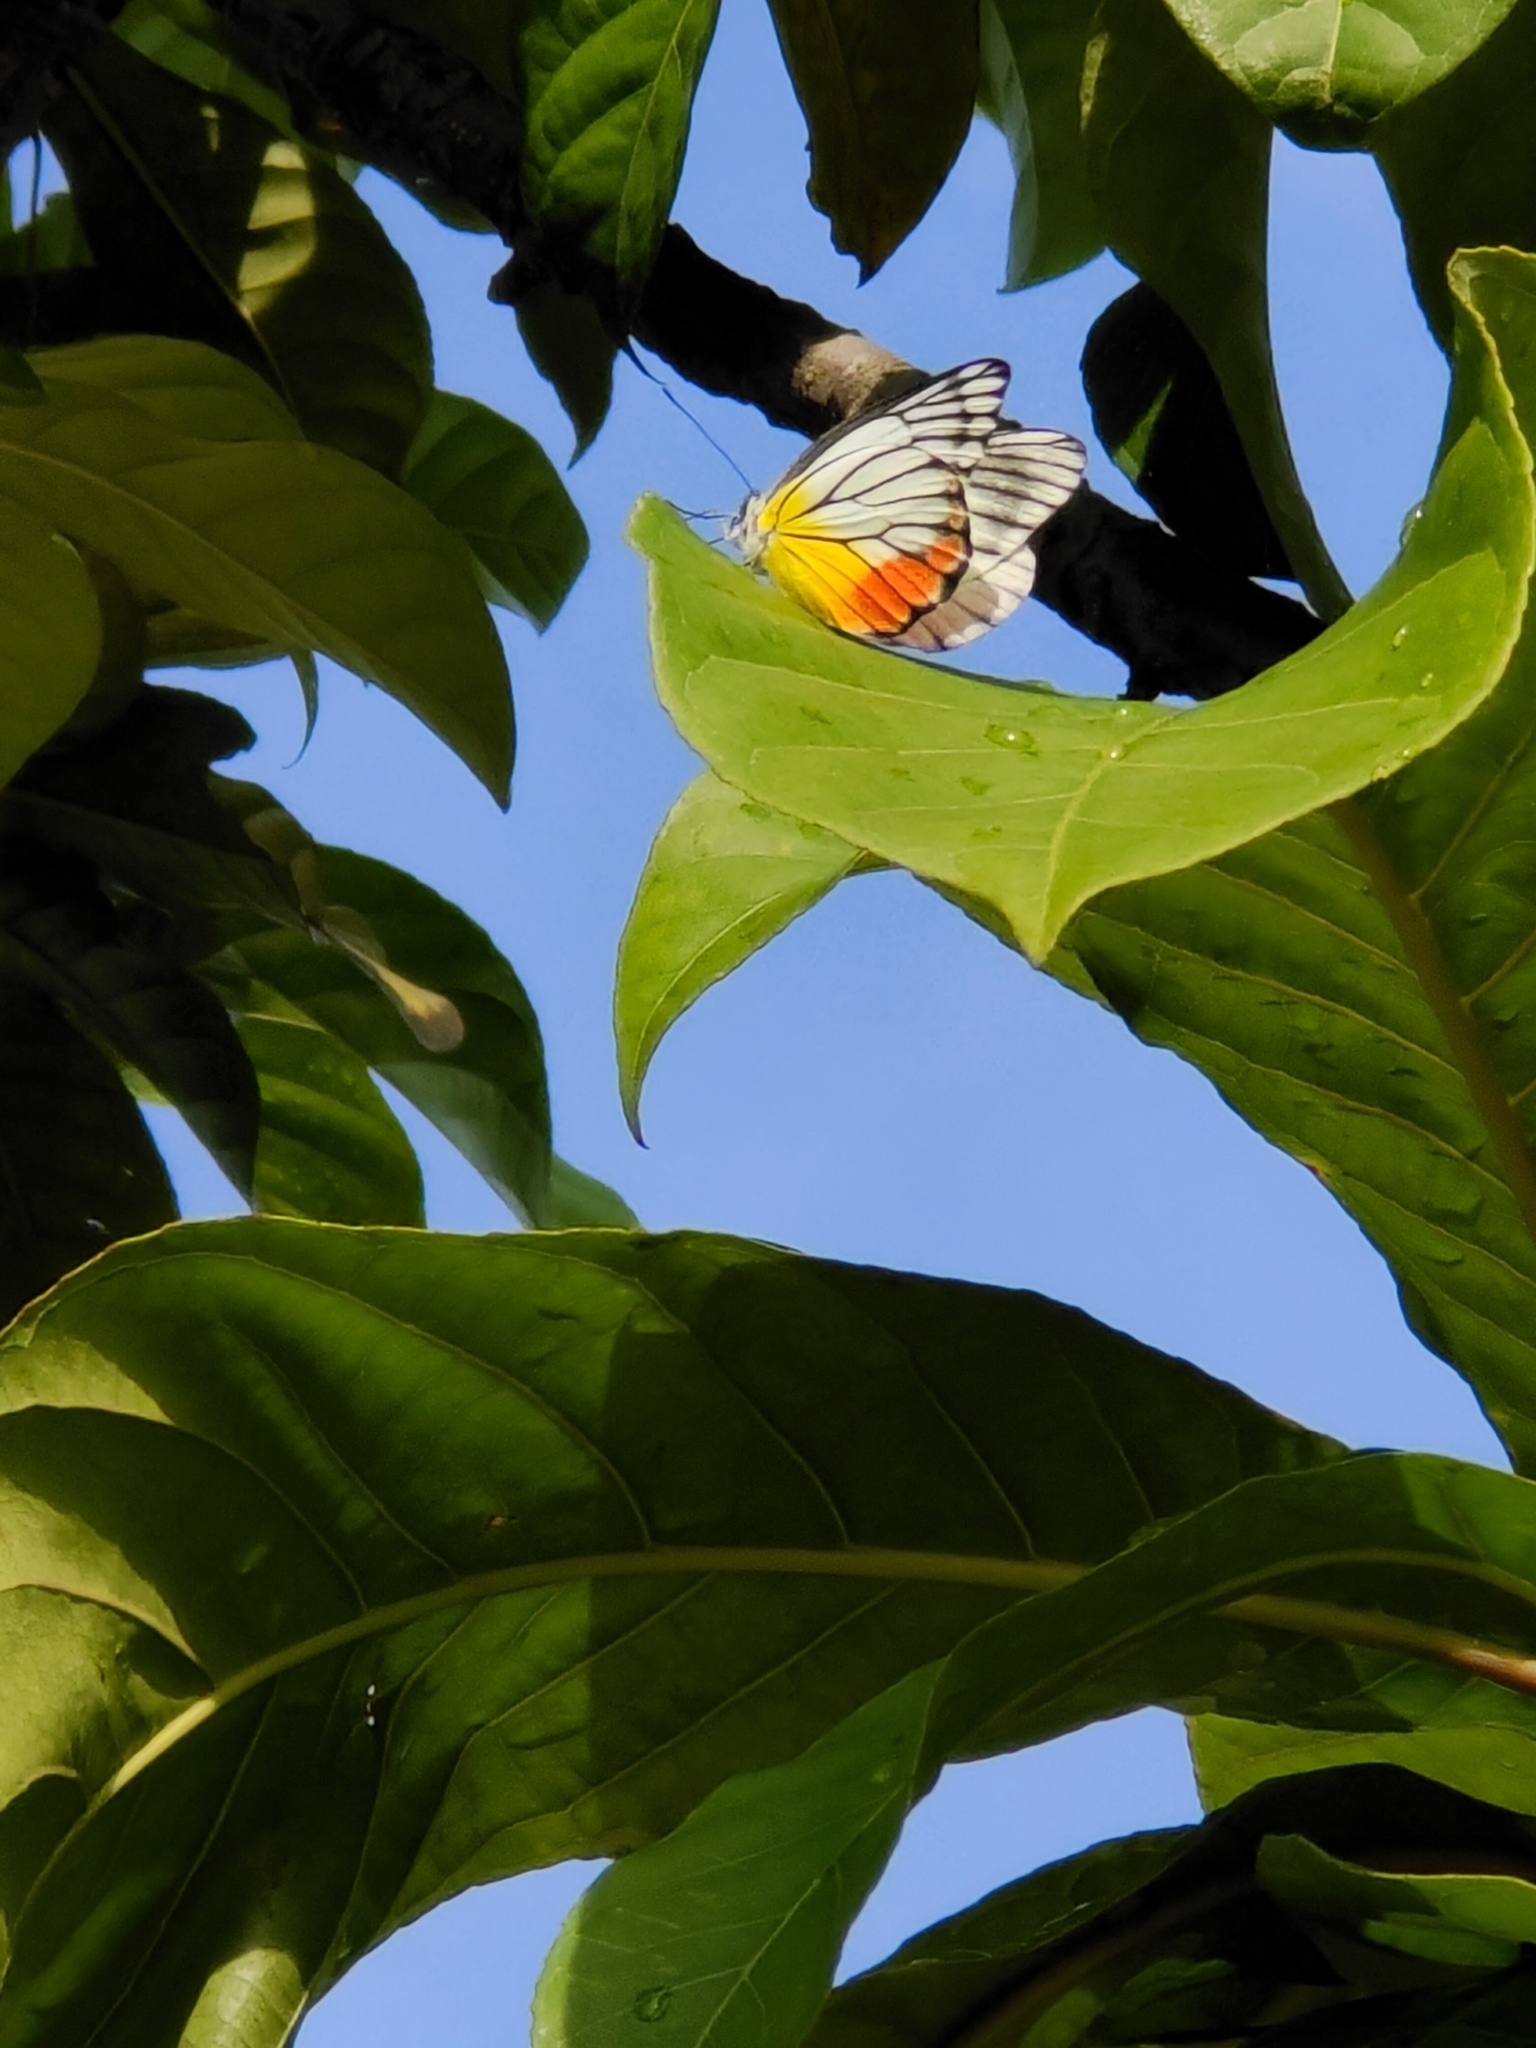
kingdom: Animalia
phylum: Arthropoda
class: Insecta
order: Lepidoptera
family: Pieridae
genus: Delias
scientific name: Delias hyparete
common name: Painted jezebel
